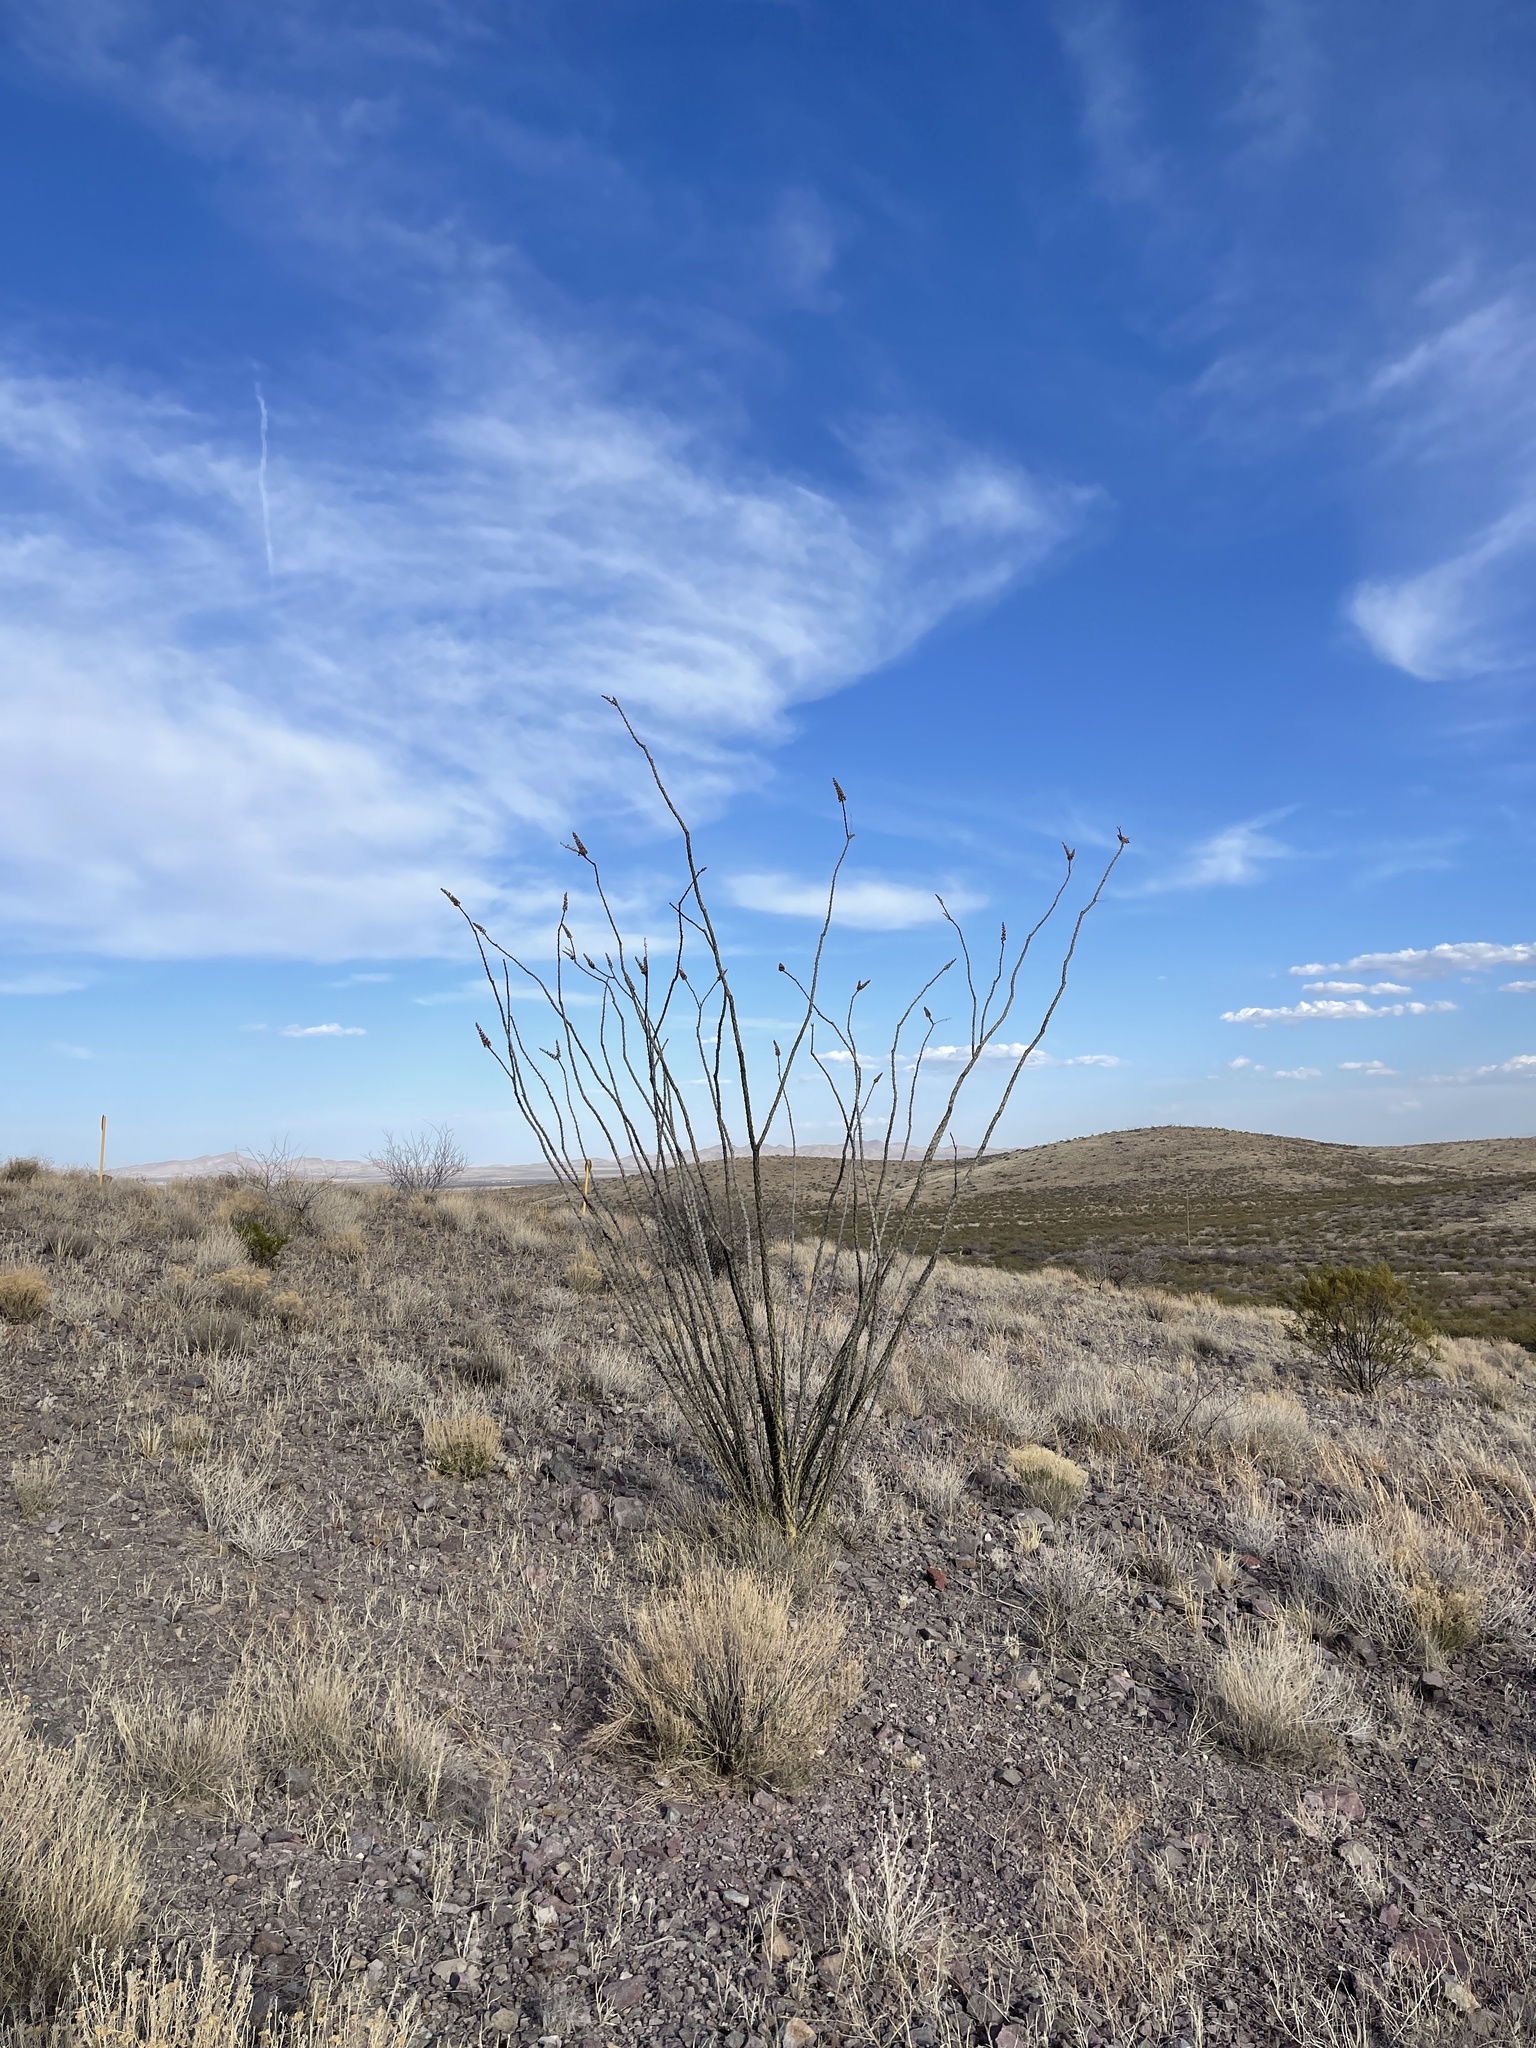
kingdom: Plantae
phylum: Tracheophyta
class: Magnoliopsida
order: Ericales
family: Fouquieriaceae
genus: Fouquieria
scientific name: Fouquieria splendens
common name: Vine-cactus
